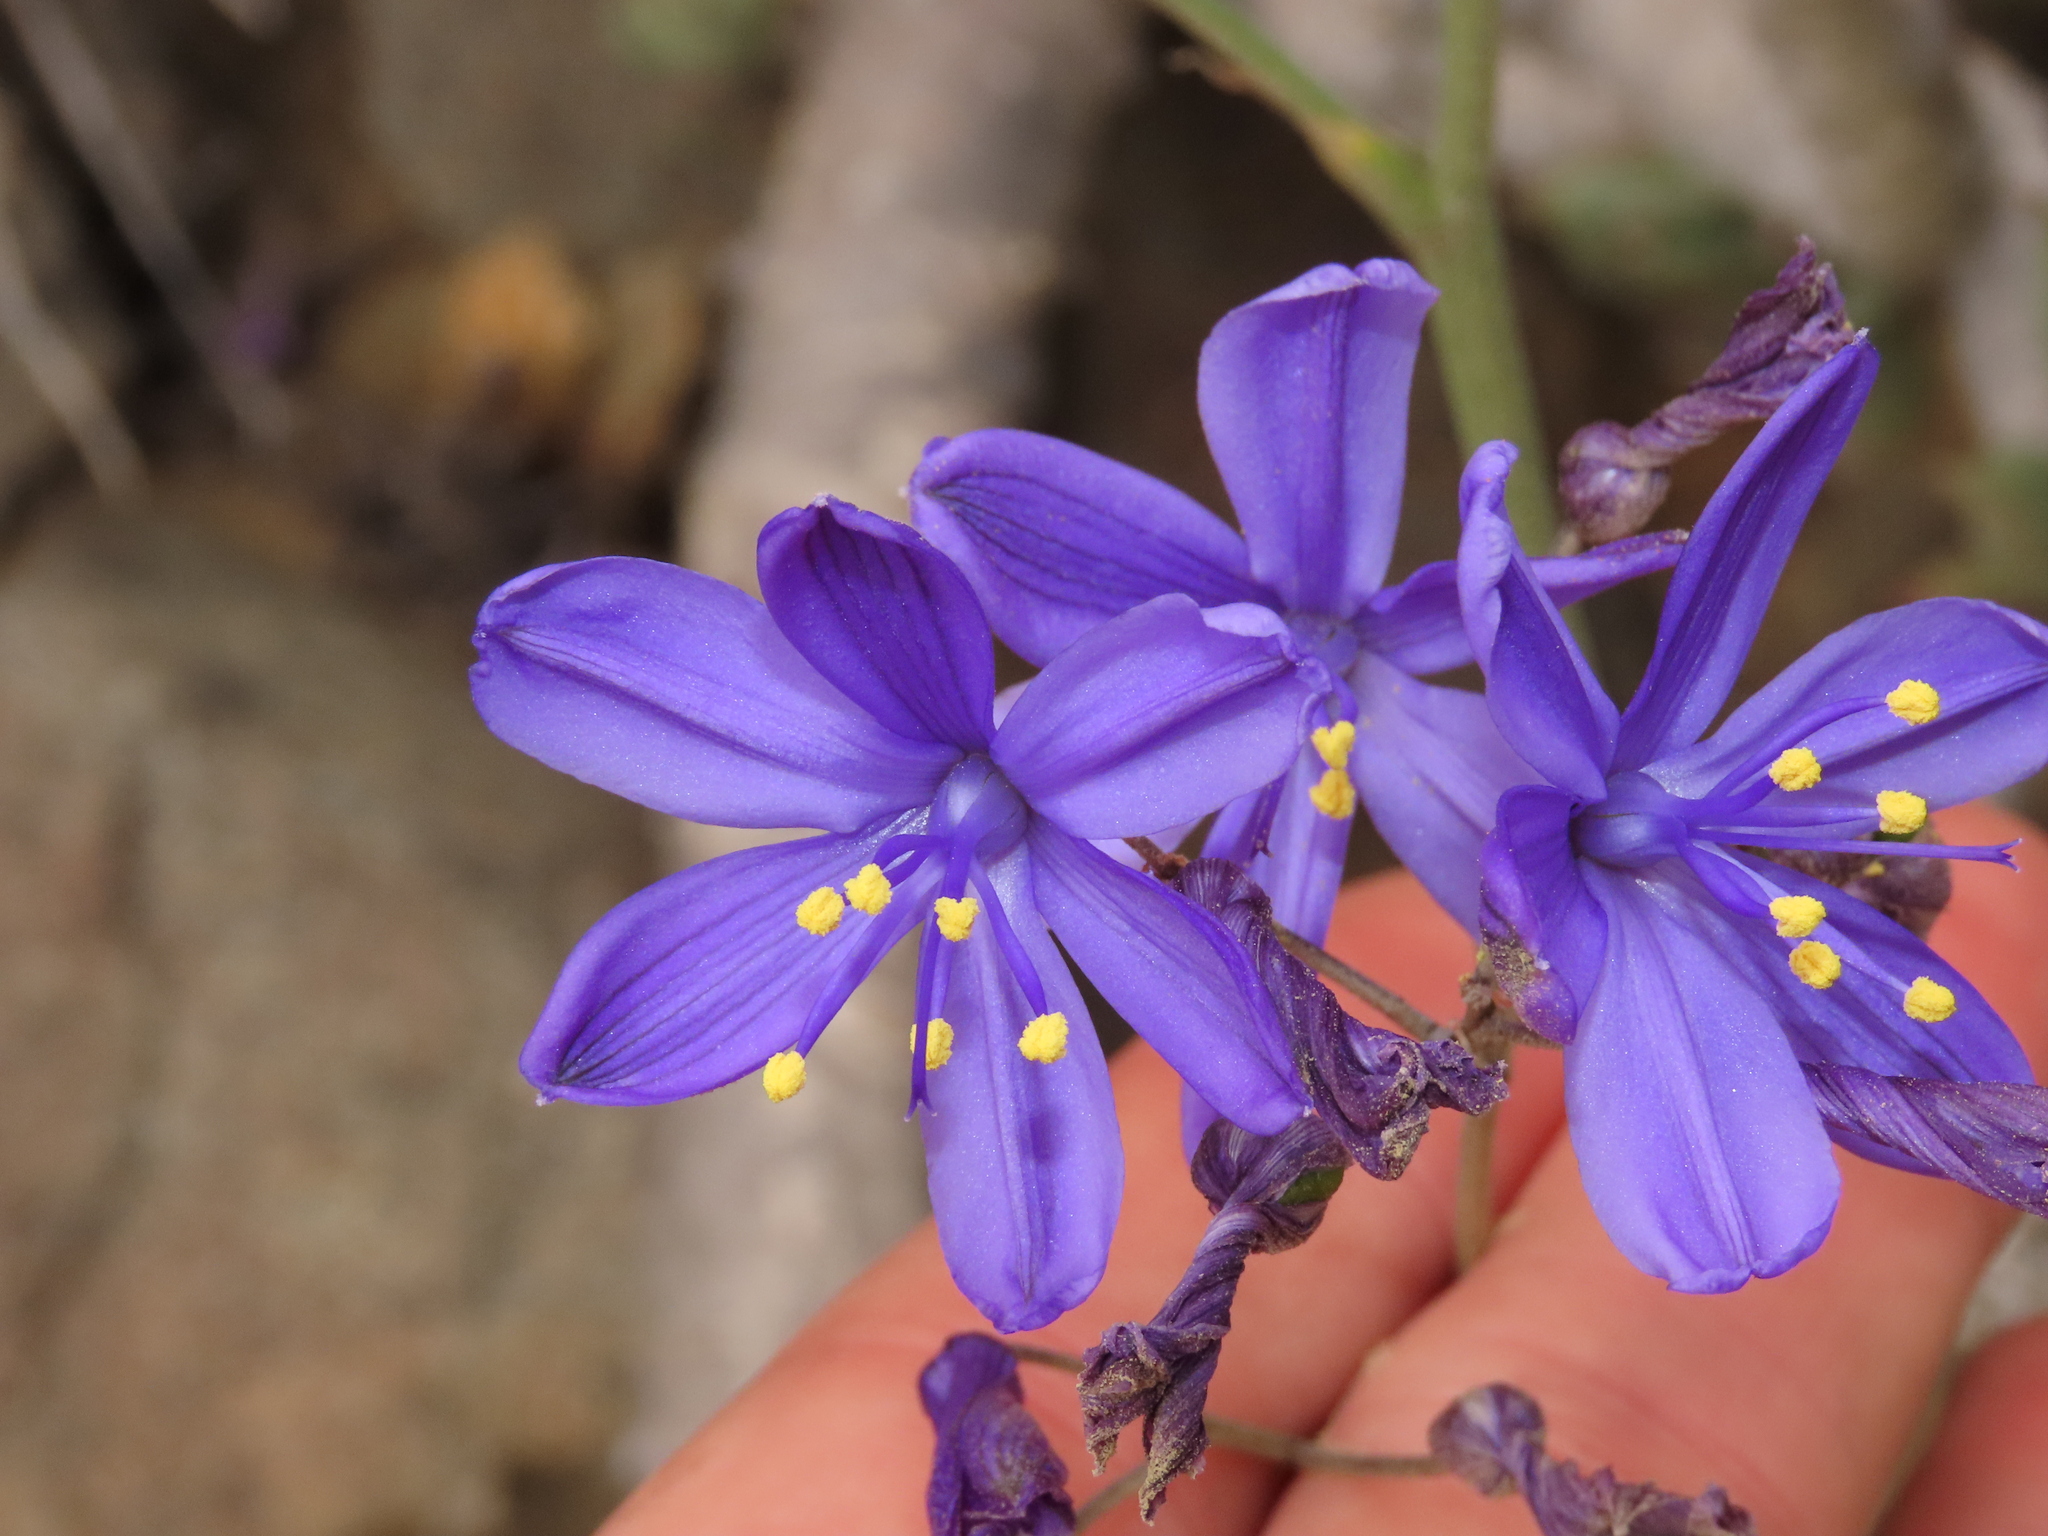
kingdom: Plantae
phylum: Tracheophyta
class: Liliopsida
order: Asparagales
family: Asphodelaceae
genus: Pasithea
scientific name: Pasithea caerulea
